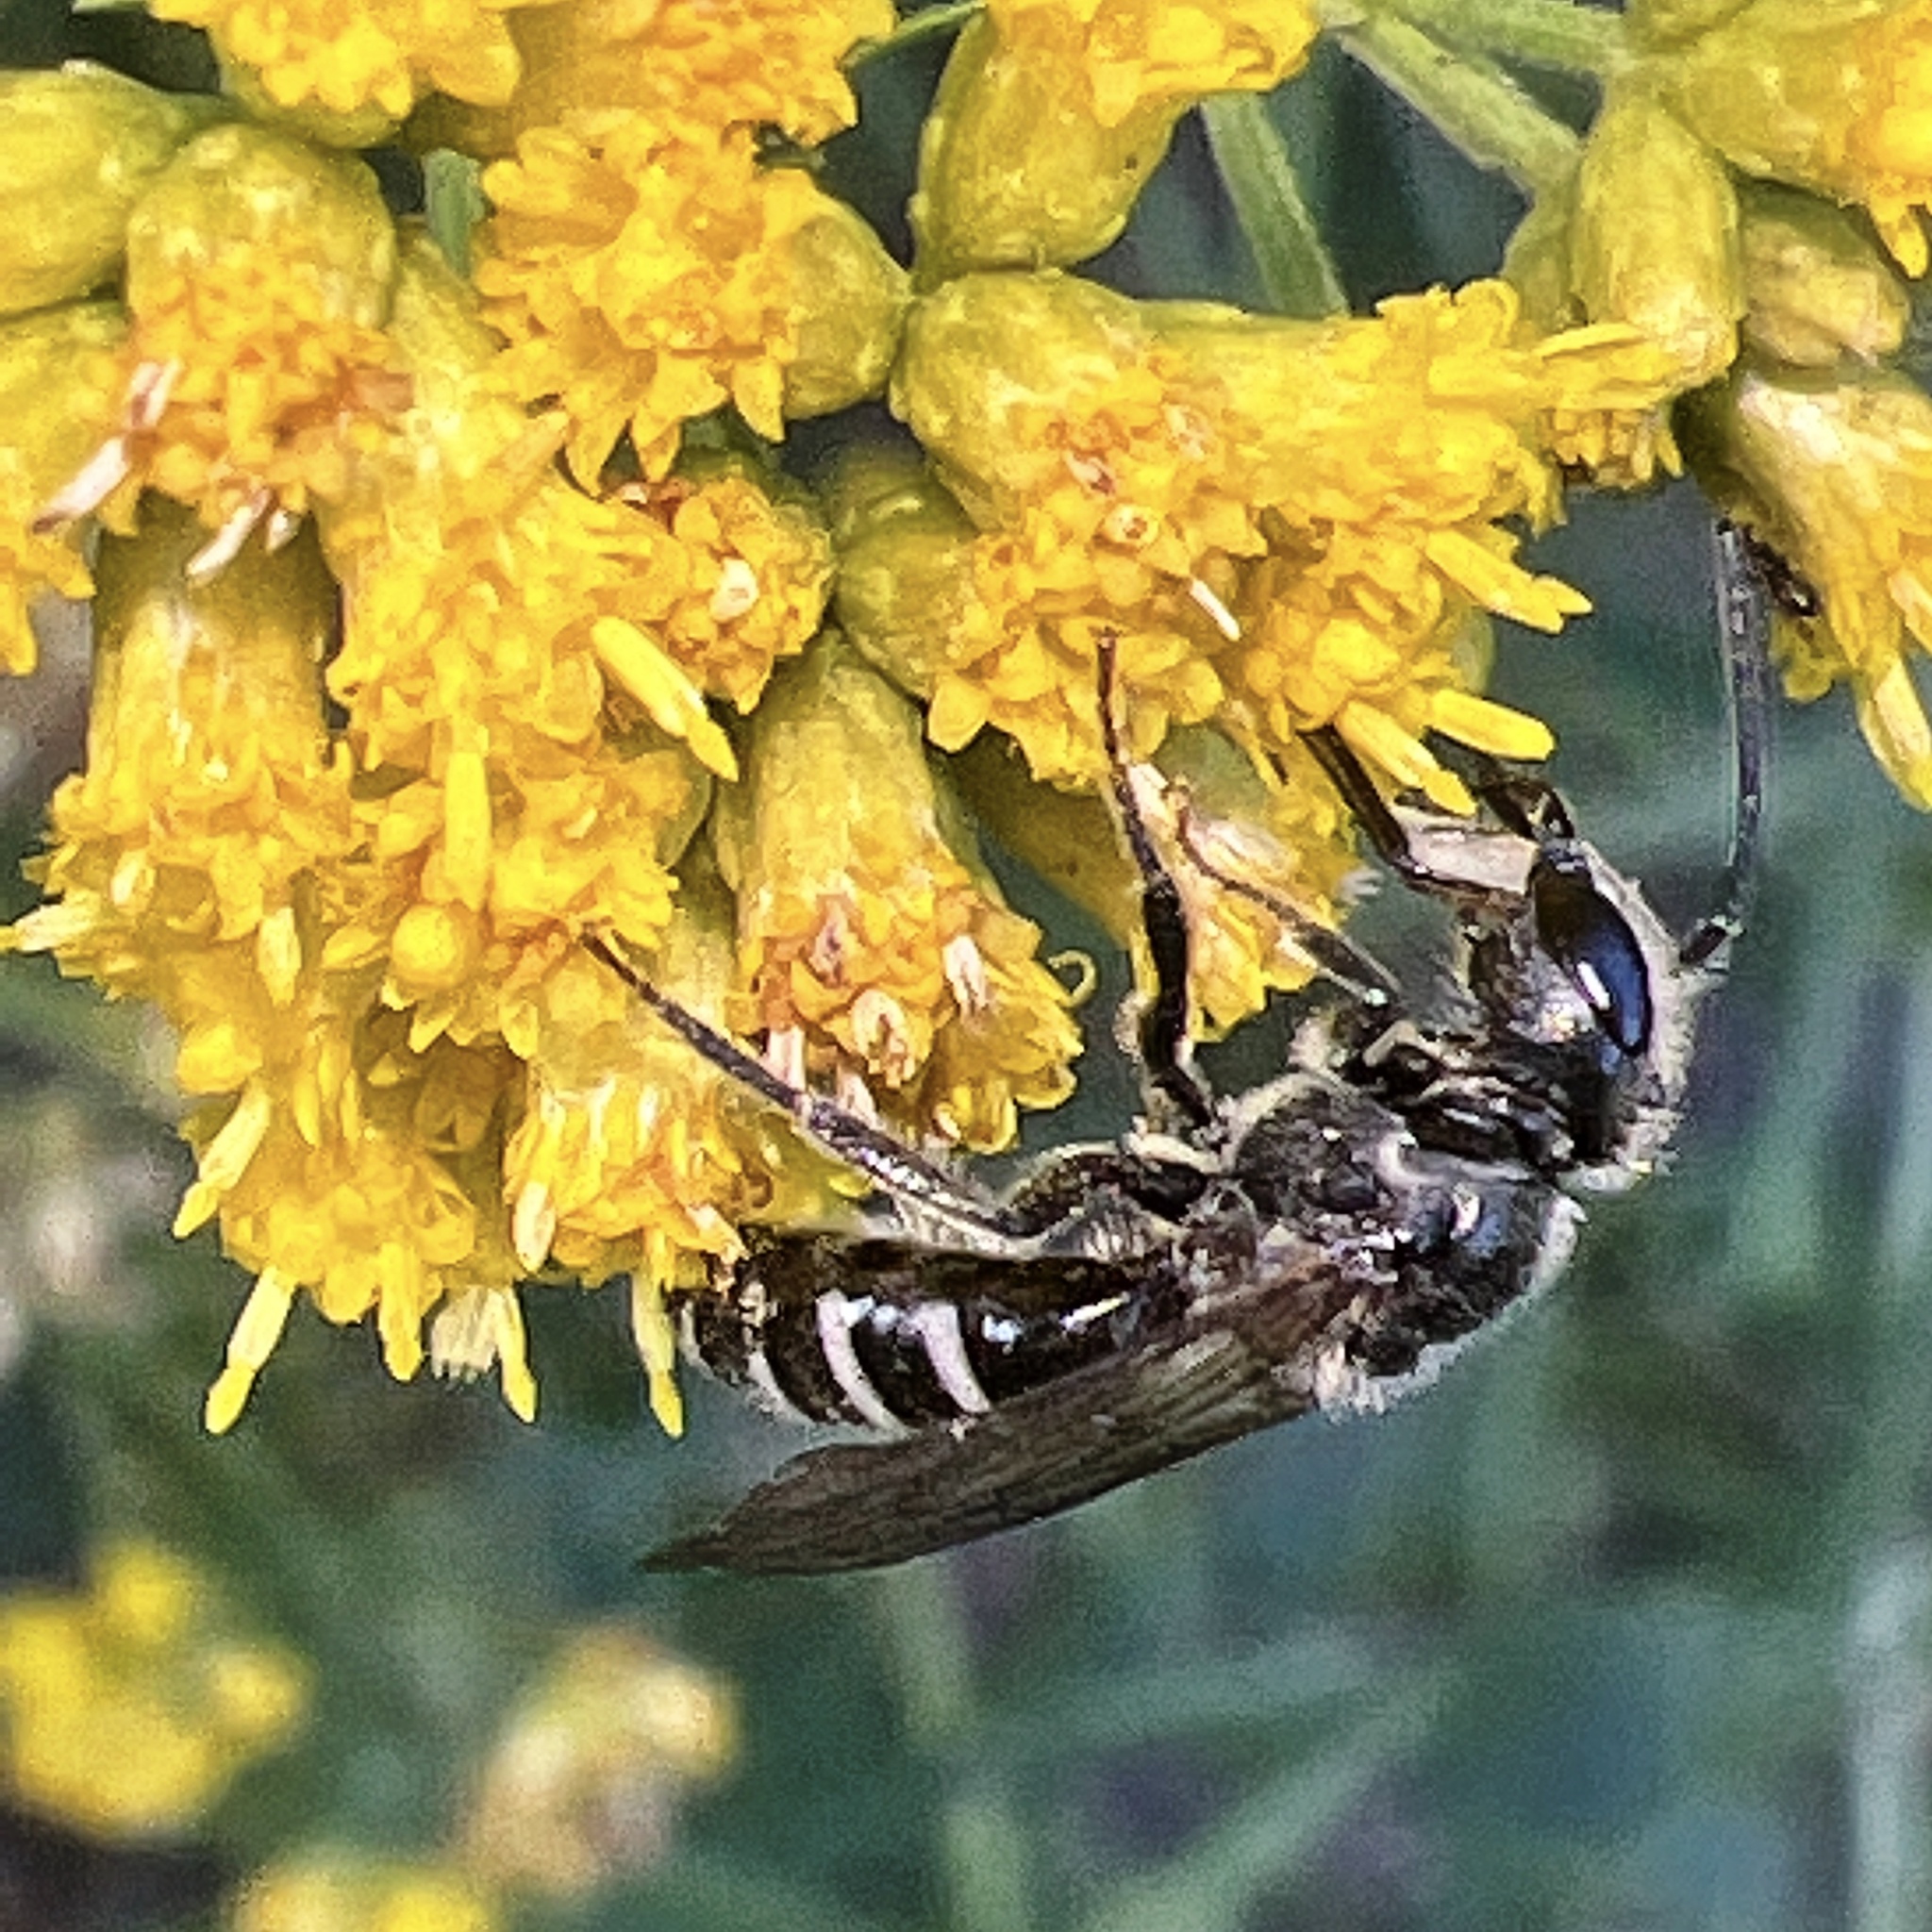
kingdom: Animalia
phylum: Arthropoda
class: Insecta
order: Hymenoptera
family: Halictidae
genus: Lasioglossum
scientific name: Lasioglossum coriaceum
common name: Leathery sweat bee
